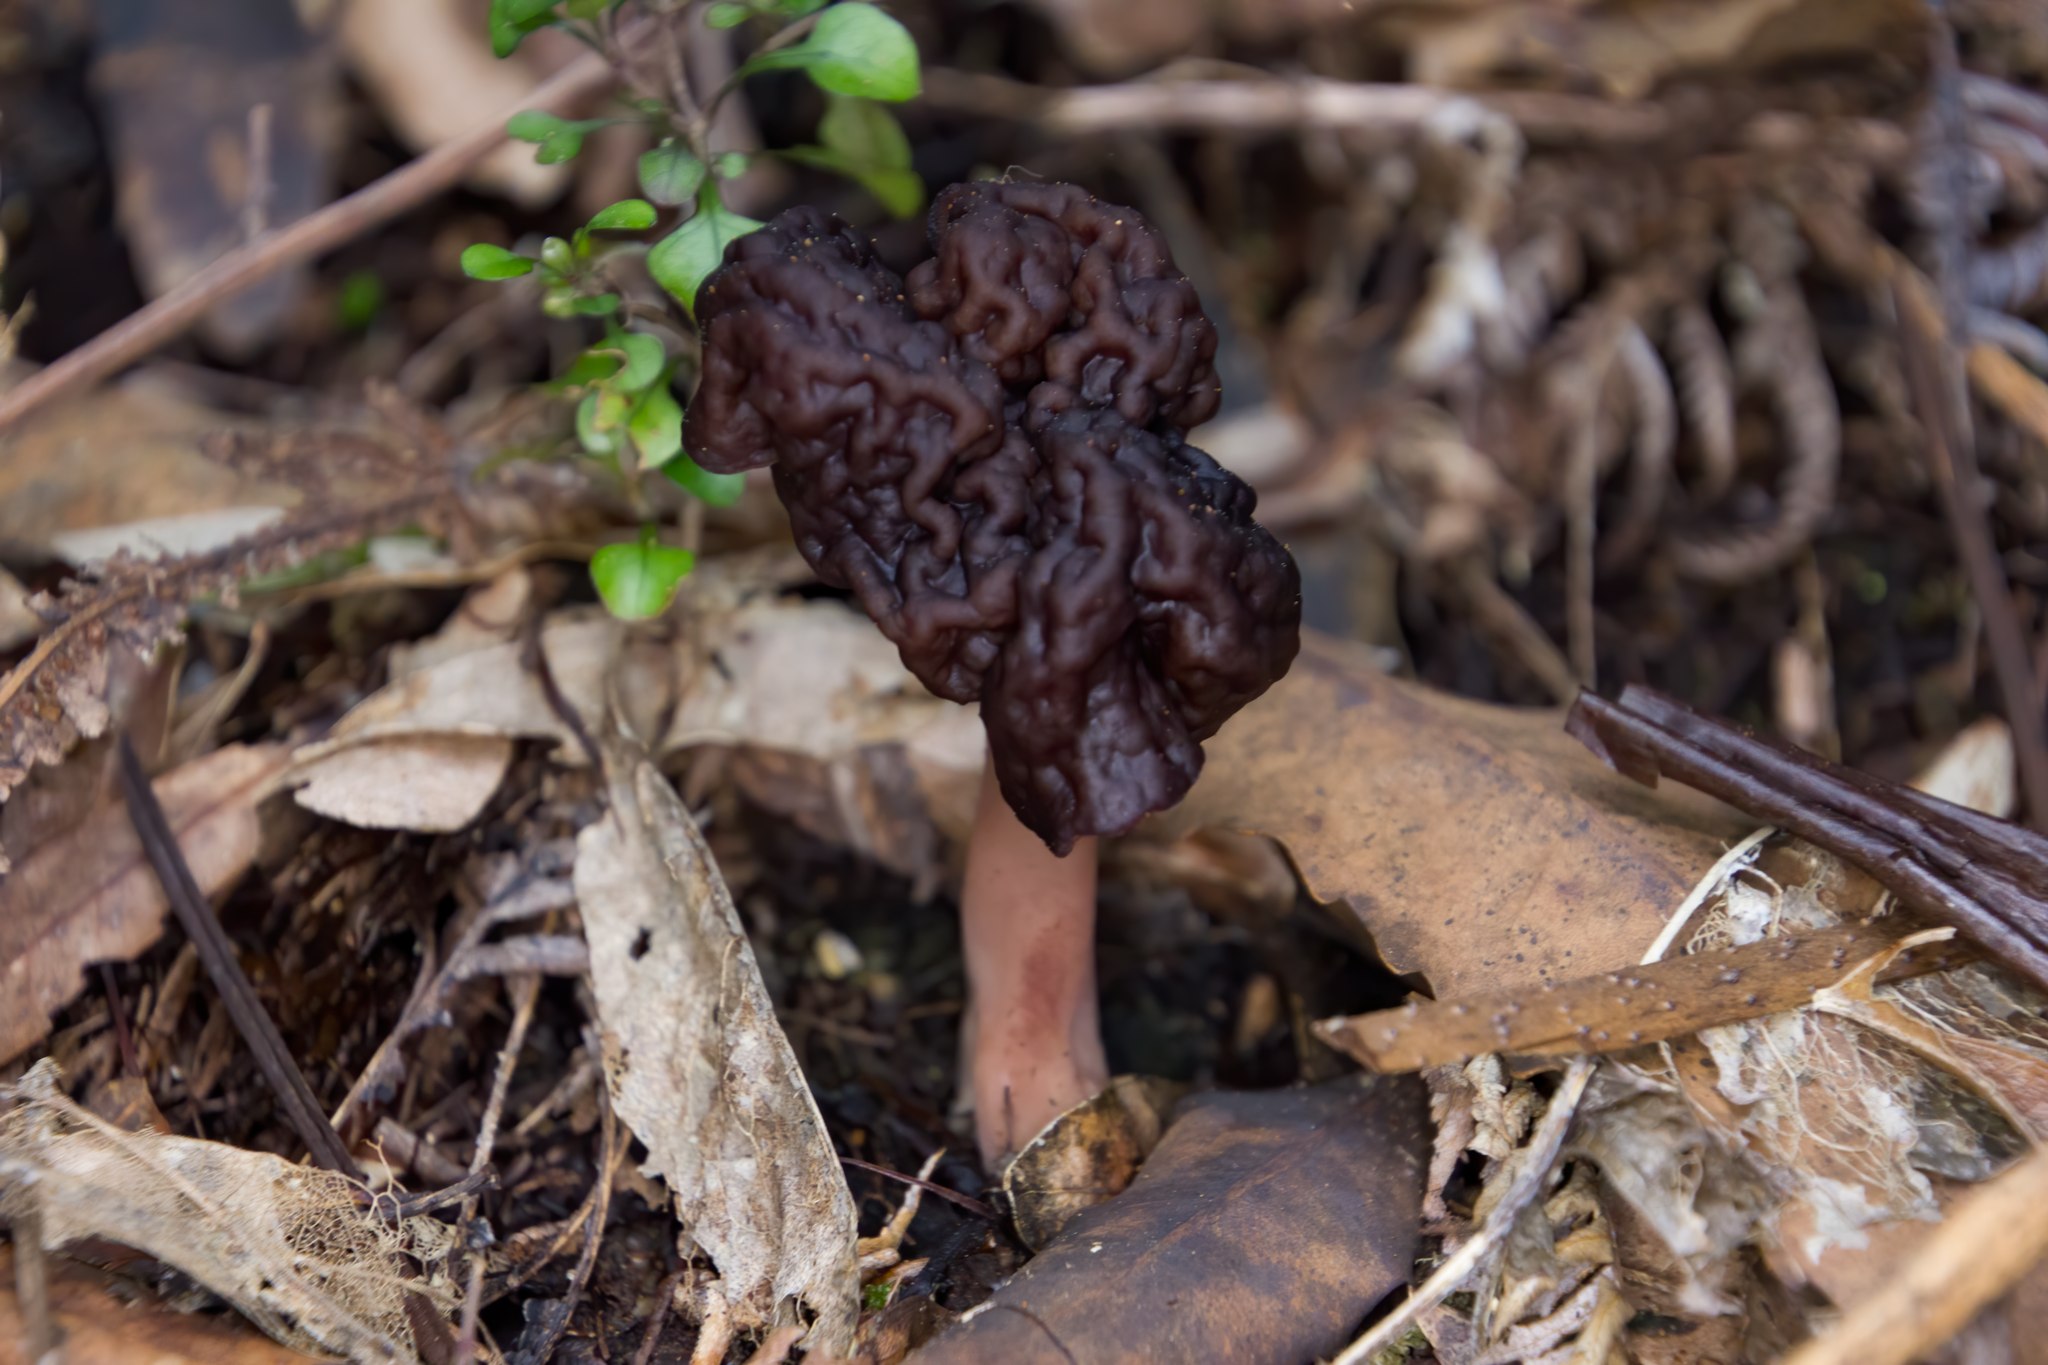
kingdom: Fungi
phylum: Ascomycota
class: Pezizomycetes
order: Pezizales
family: Discinaceae
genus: Gyromitra
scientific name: Gyromitra tasmanica
